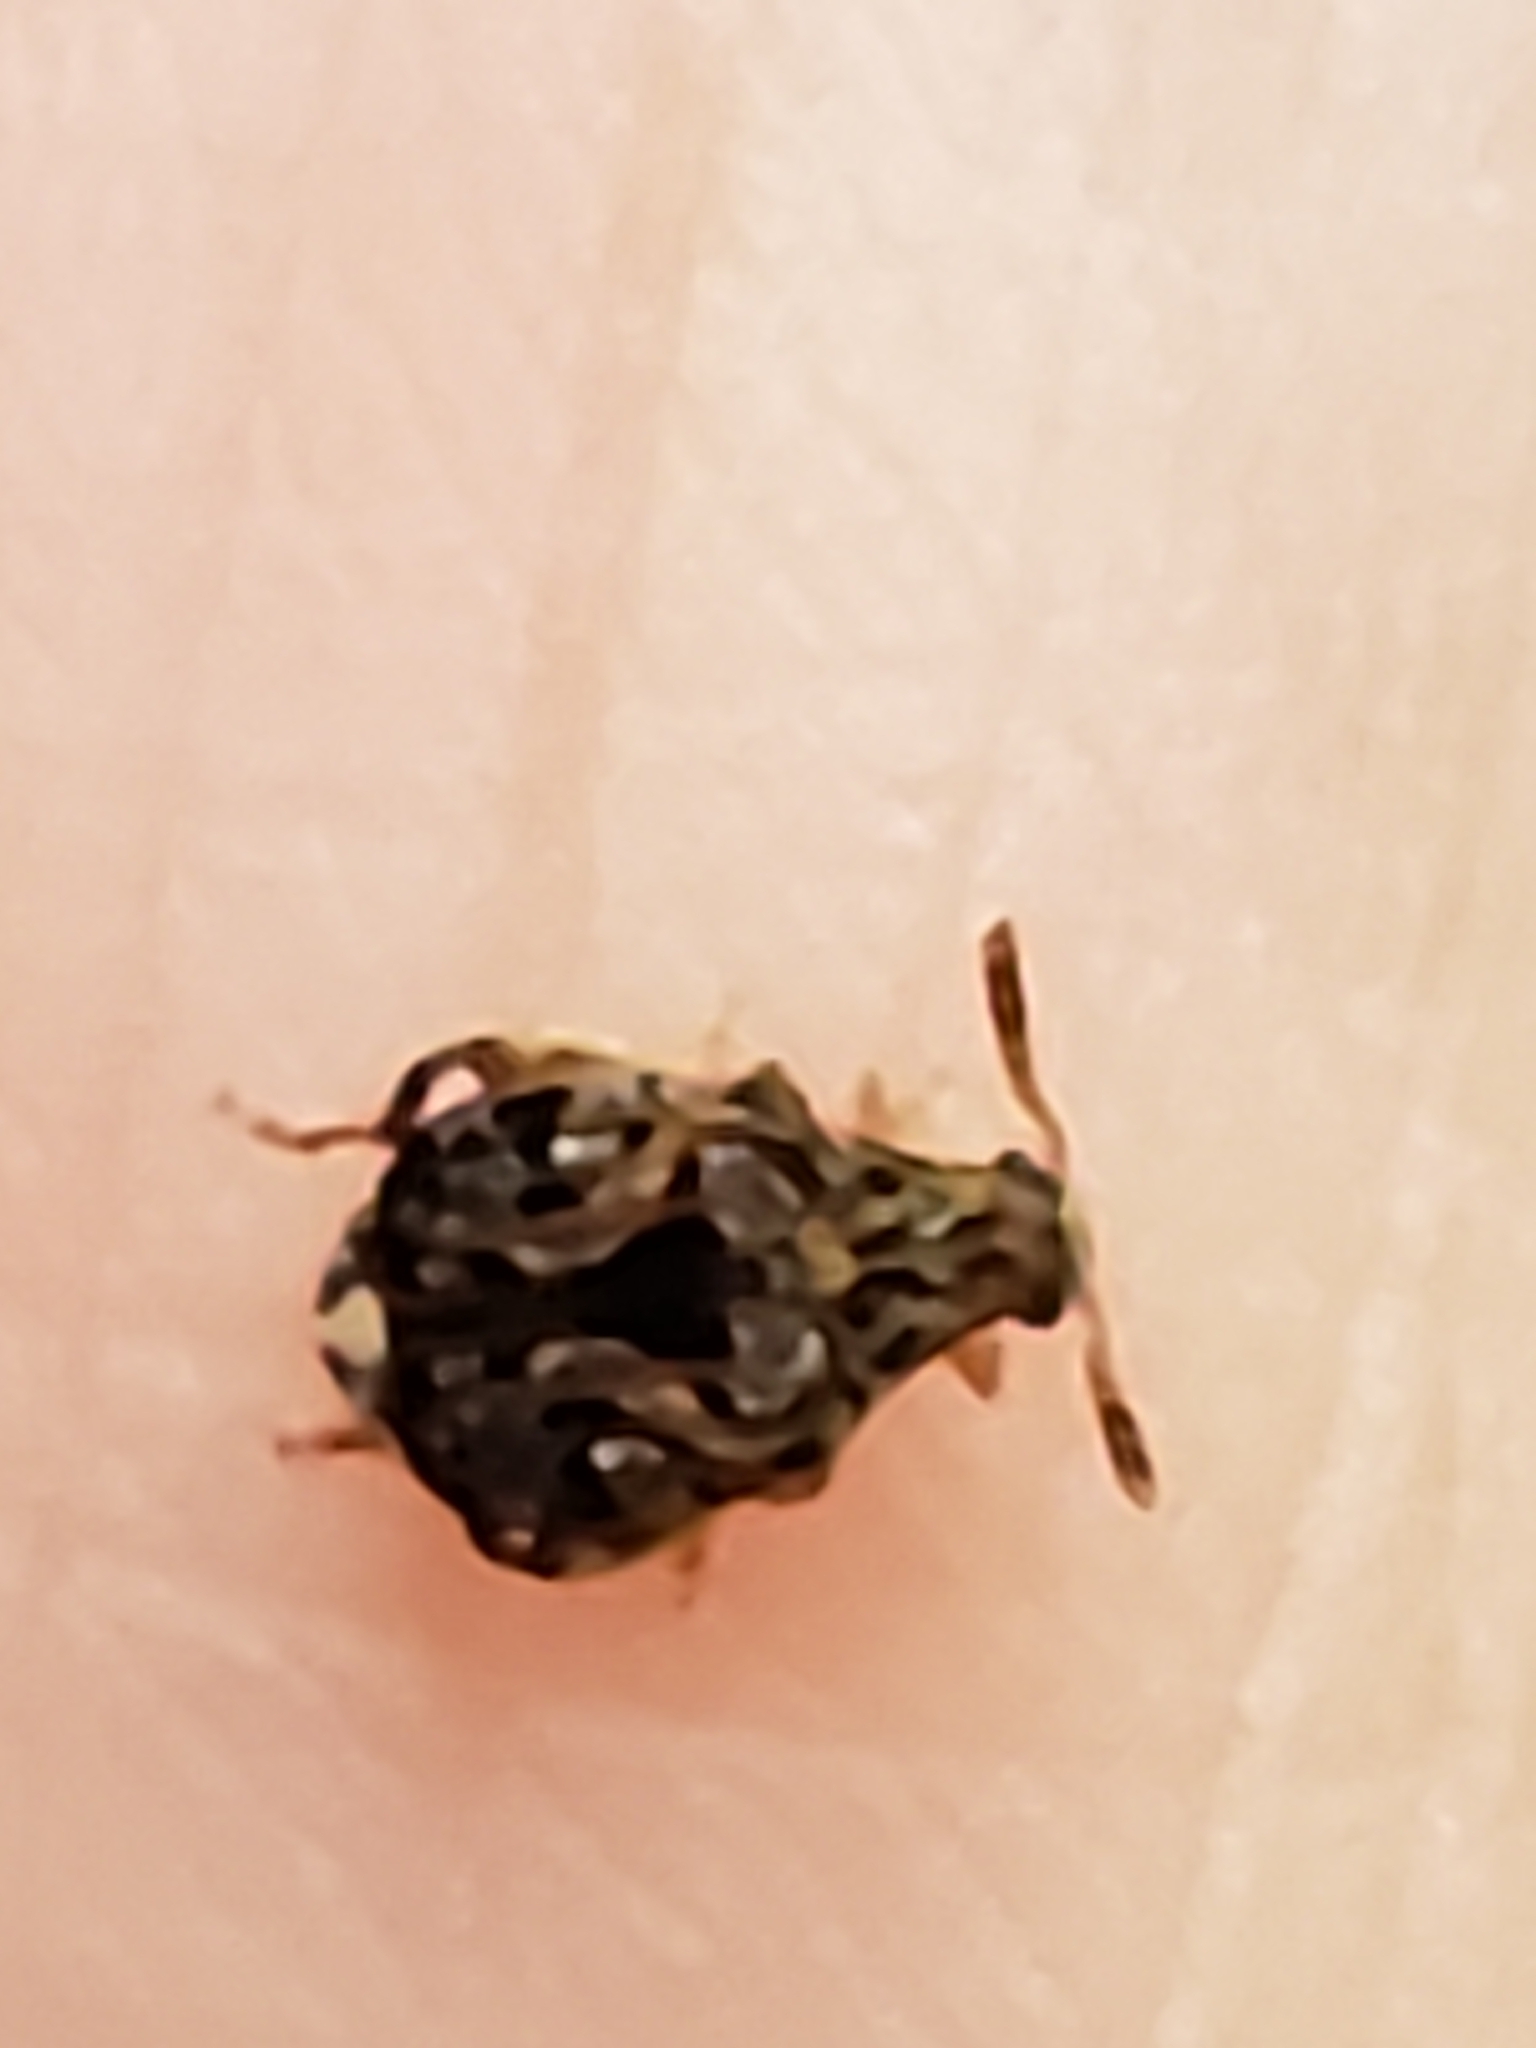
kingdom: Animalia
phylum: Arthropoda
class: Insecta
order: Coleoptera
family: Chrysomelidae
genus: Gibbobruchus
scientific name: Gibbobruchus mimus
